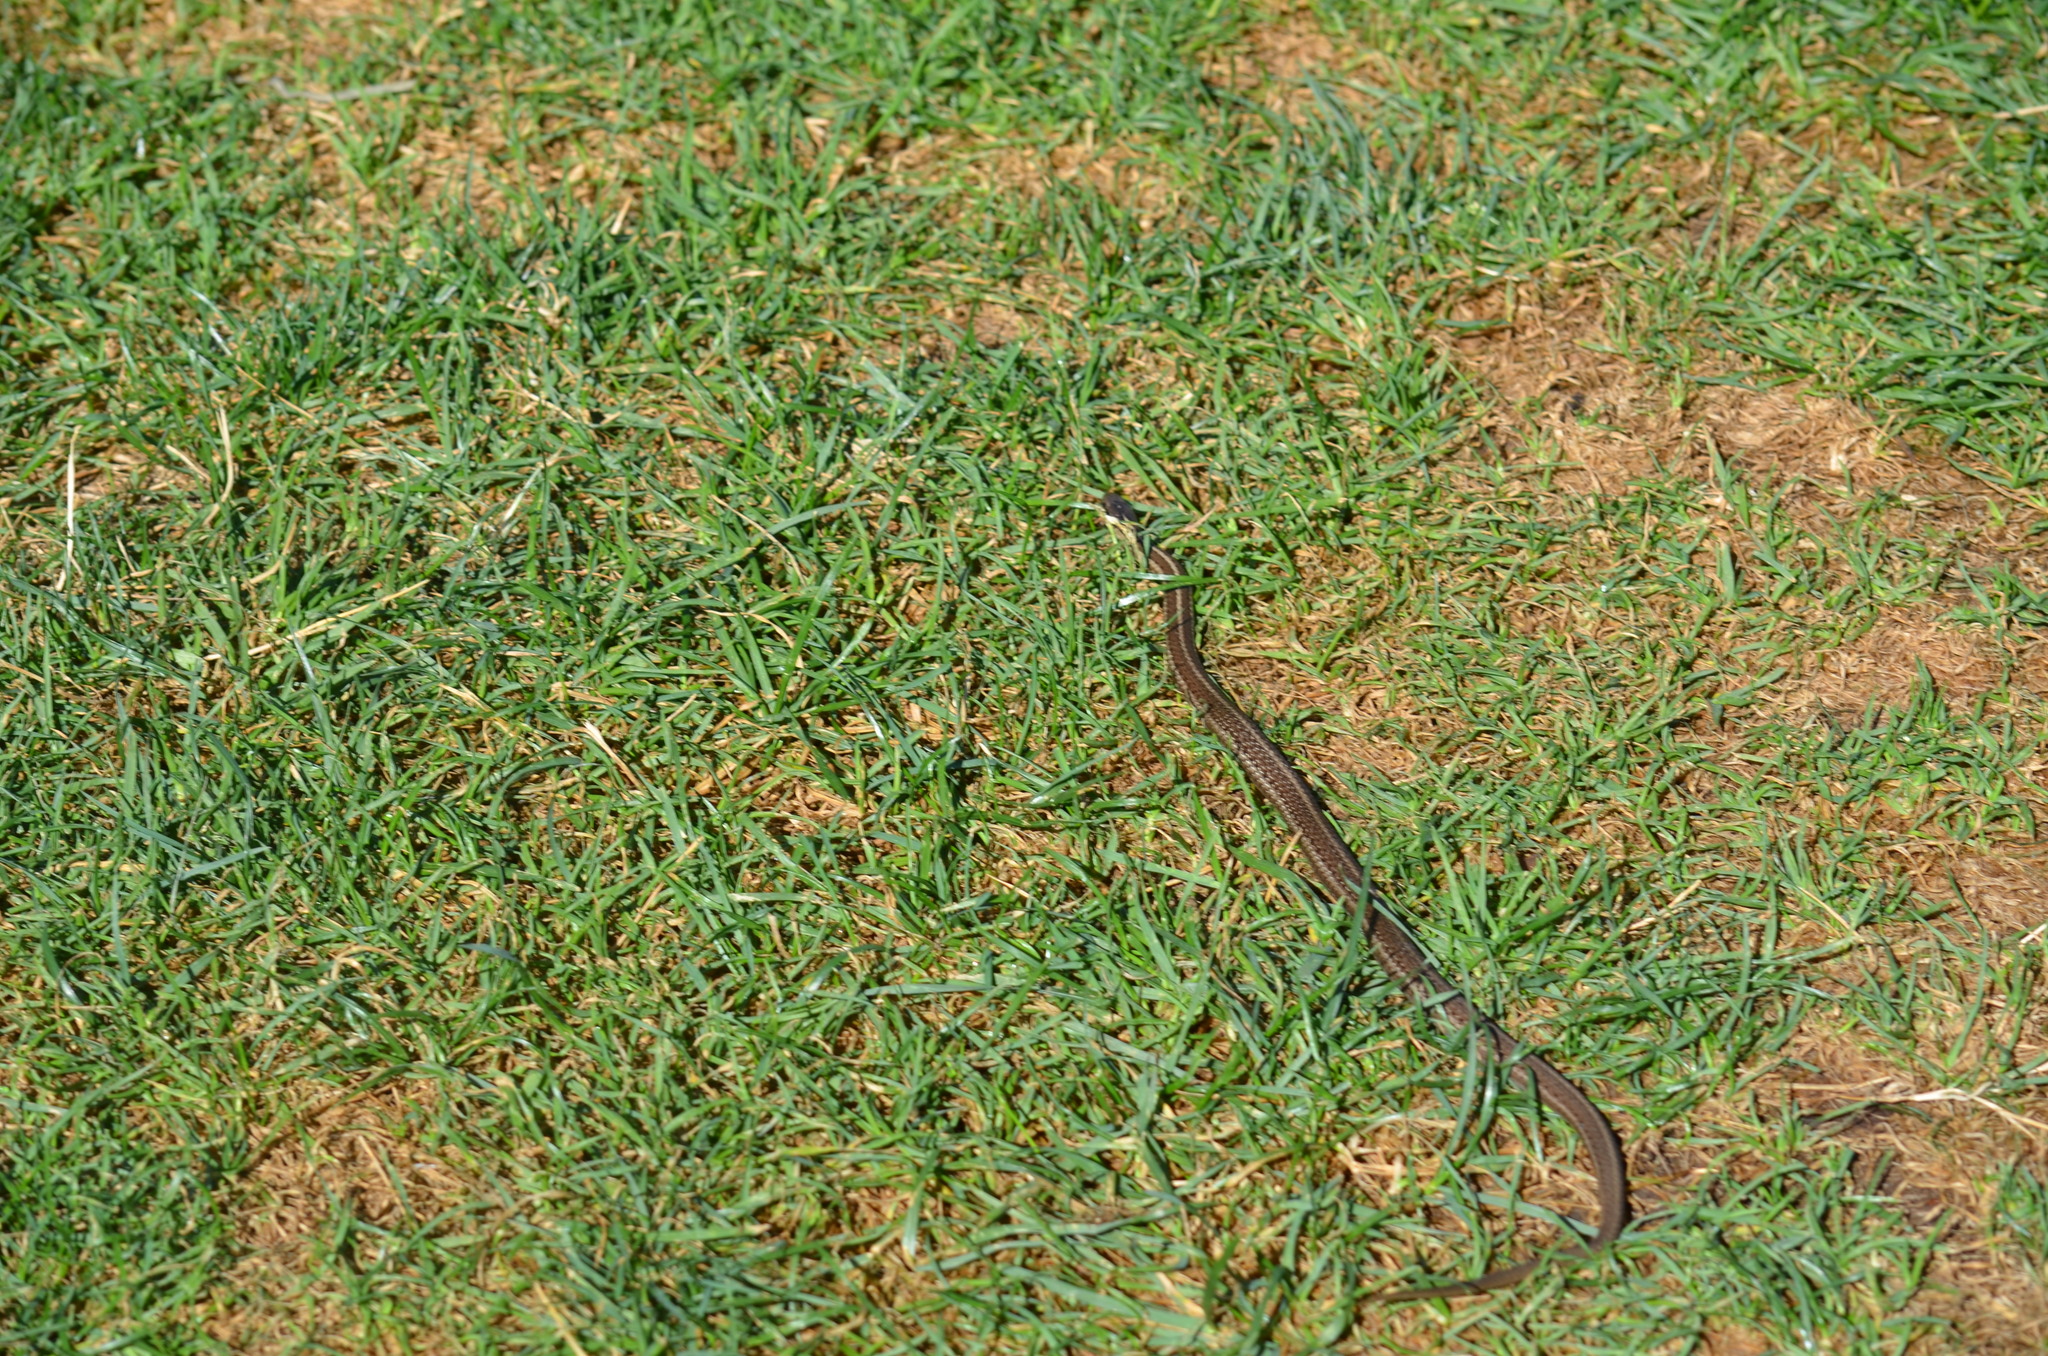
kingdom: Animalia
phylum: Chordata
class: Squamata
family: Colubridae
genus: Thamnophis
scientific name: Thamnophis ordinoides
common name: Northwestern garter snake
